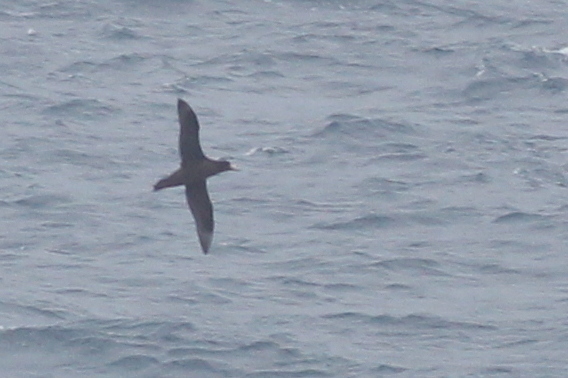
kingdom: Animalia
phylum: Chordata
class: Aves
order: Procellariiformes
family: Procellariidae
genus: Macronectes
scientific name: Macronectes giganteus
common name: Southern giant petrel
